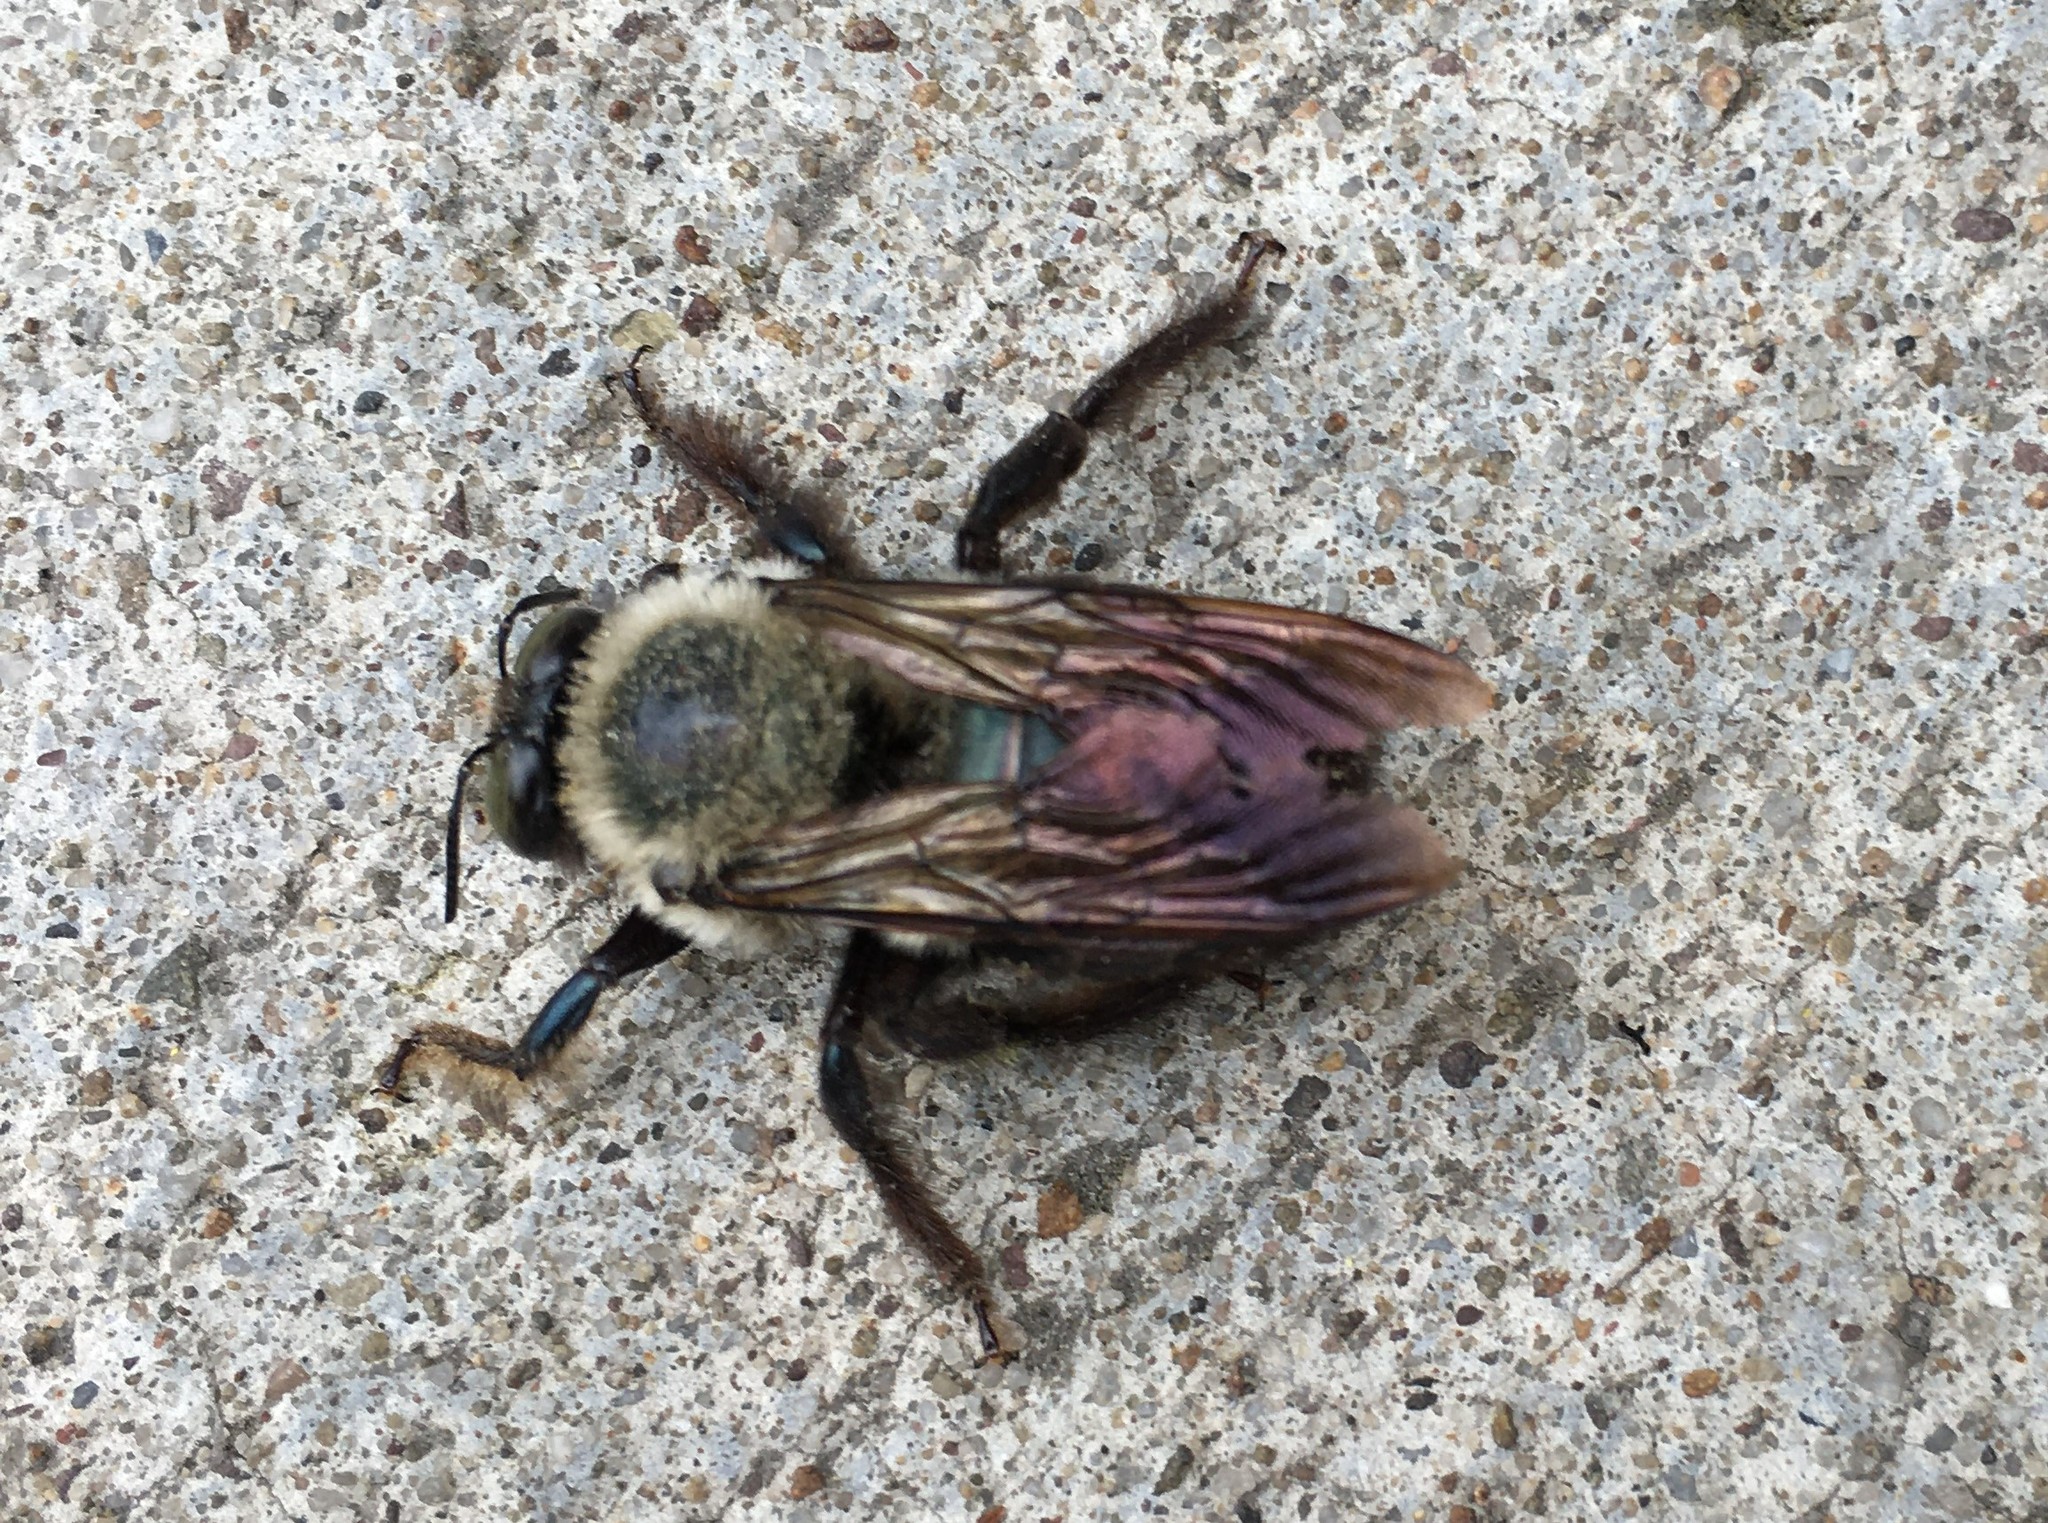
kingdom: Animalia
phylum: Arthropoda
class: Insecta
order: Hymenoptera
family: Apidae
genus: Xylocopa
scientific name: Xylocopa virginica
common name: Carpenter bee
